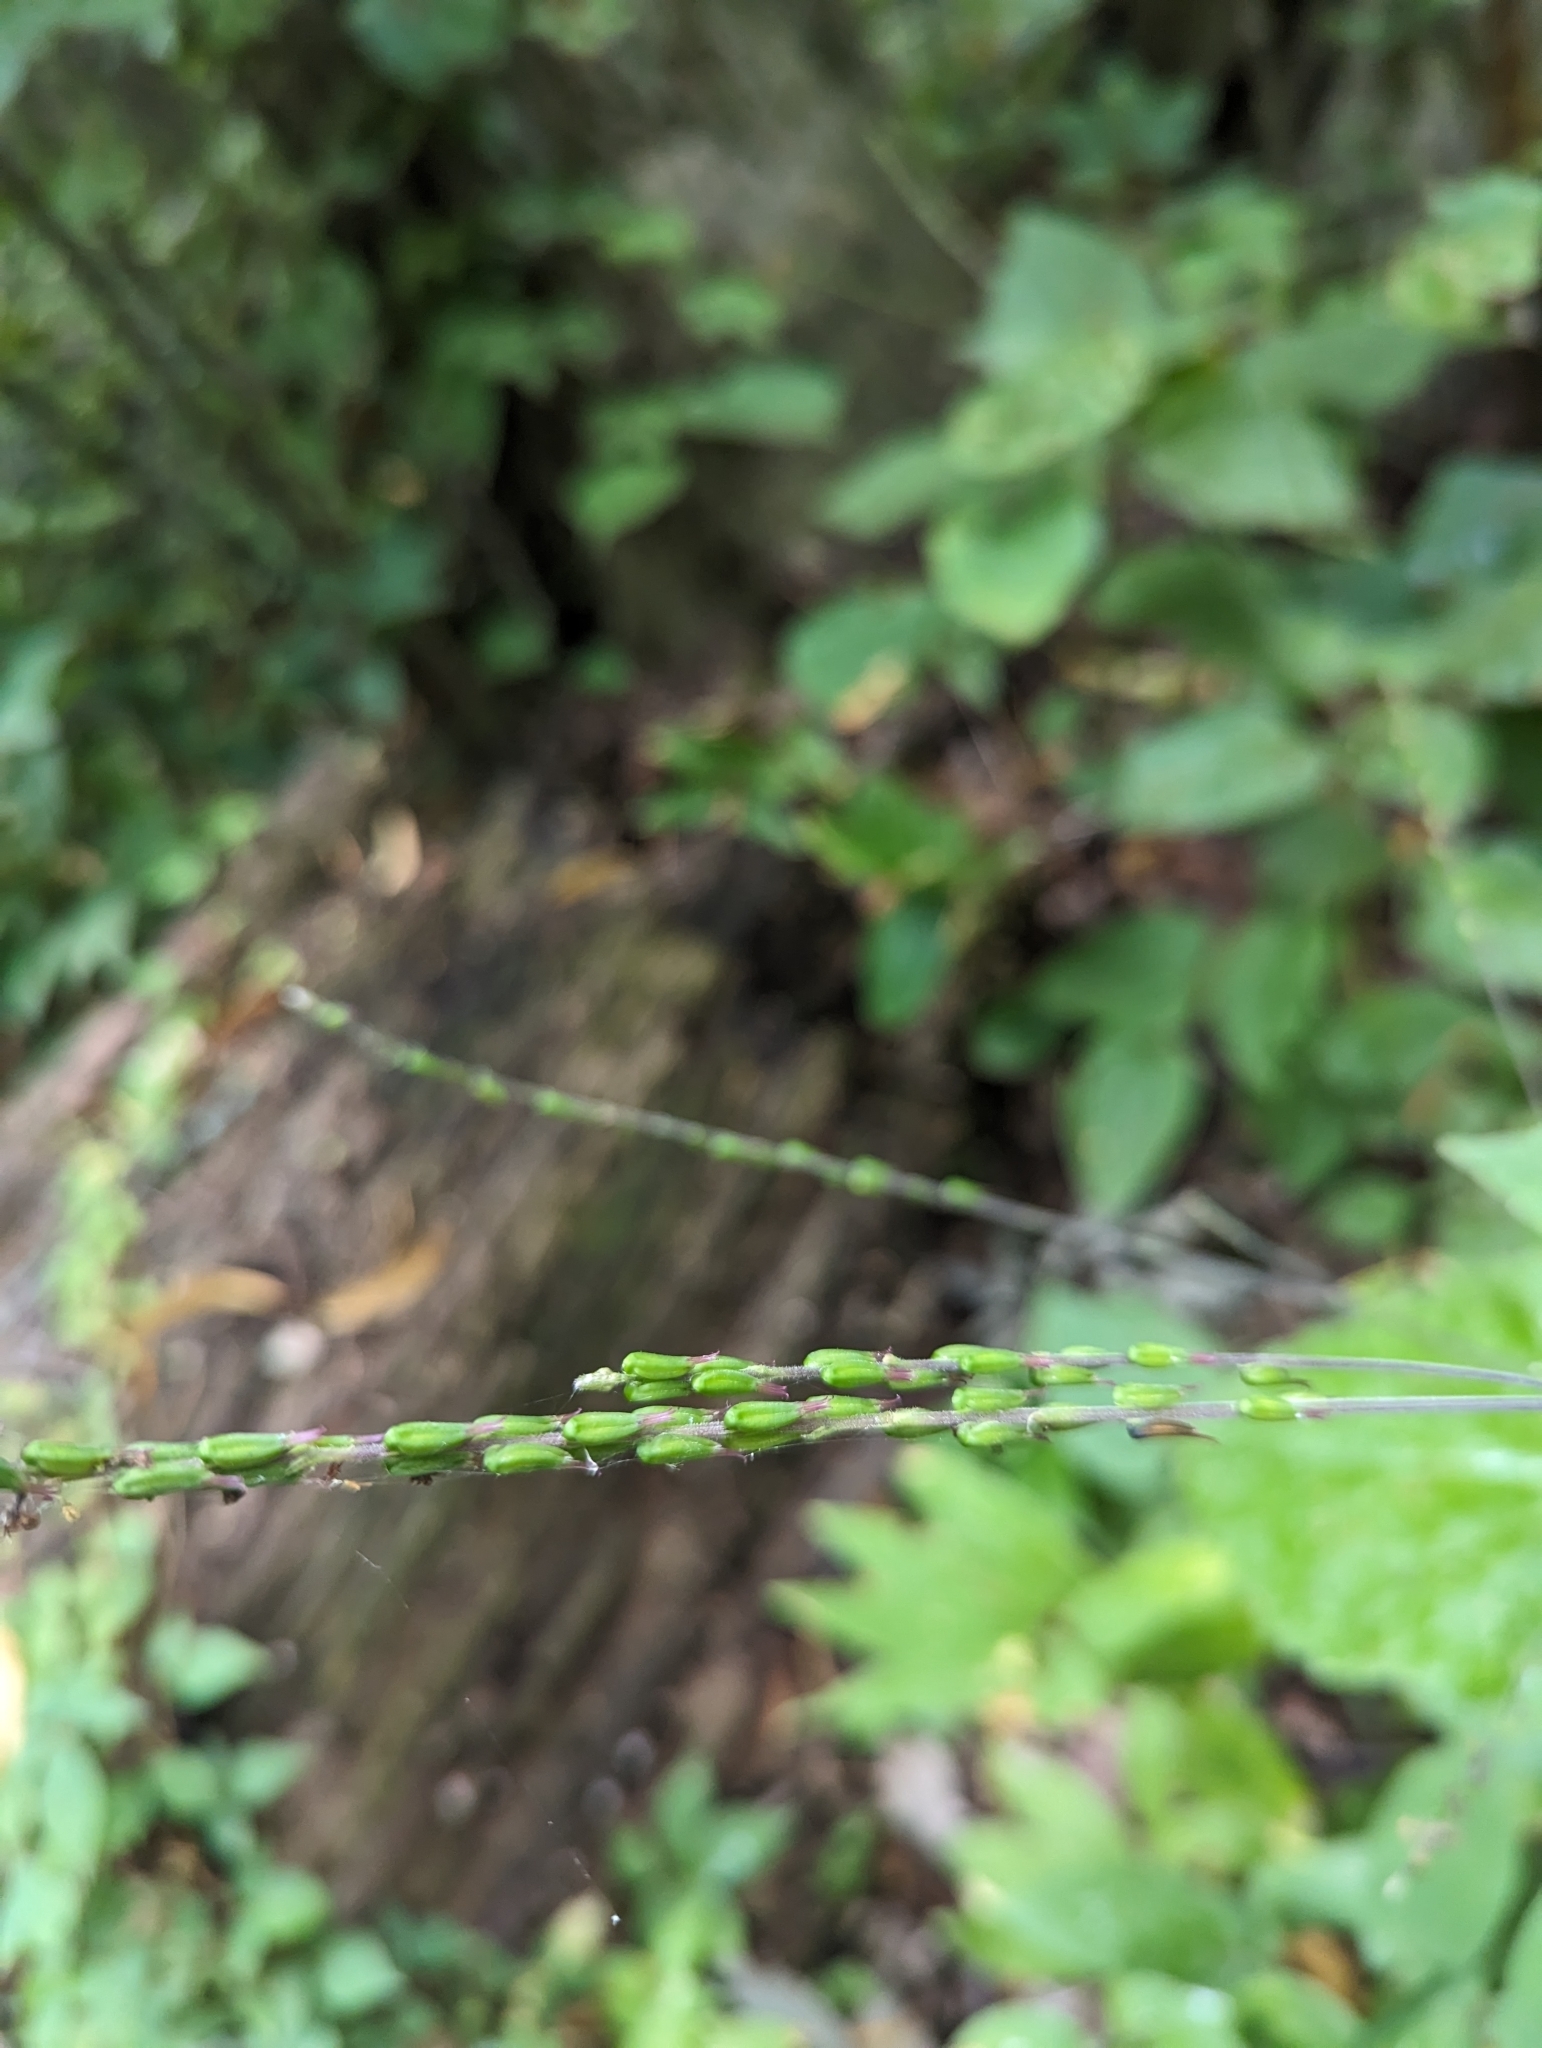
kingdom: Plantae
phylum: Tracheophyta
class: Magnoliopsida
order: Lamiales
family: Phrymaceae
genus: Phryma
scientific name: Phryma leptostachya
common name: American lopseed
